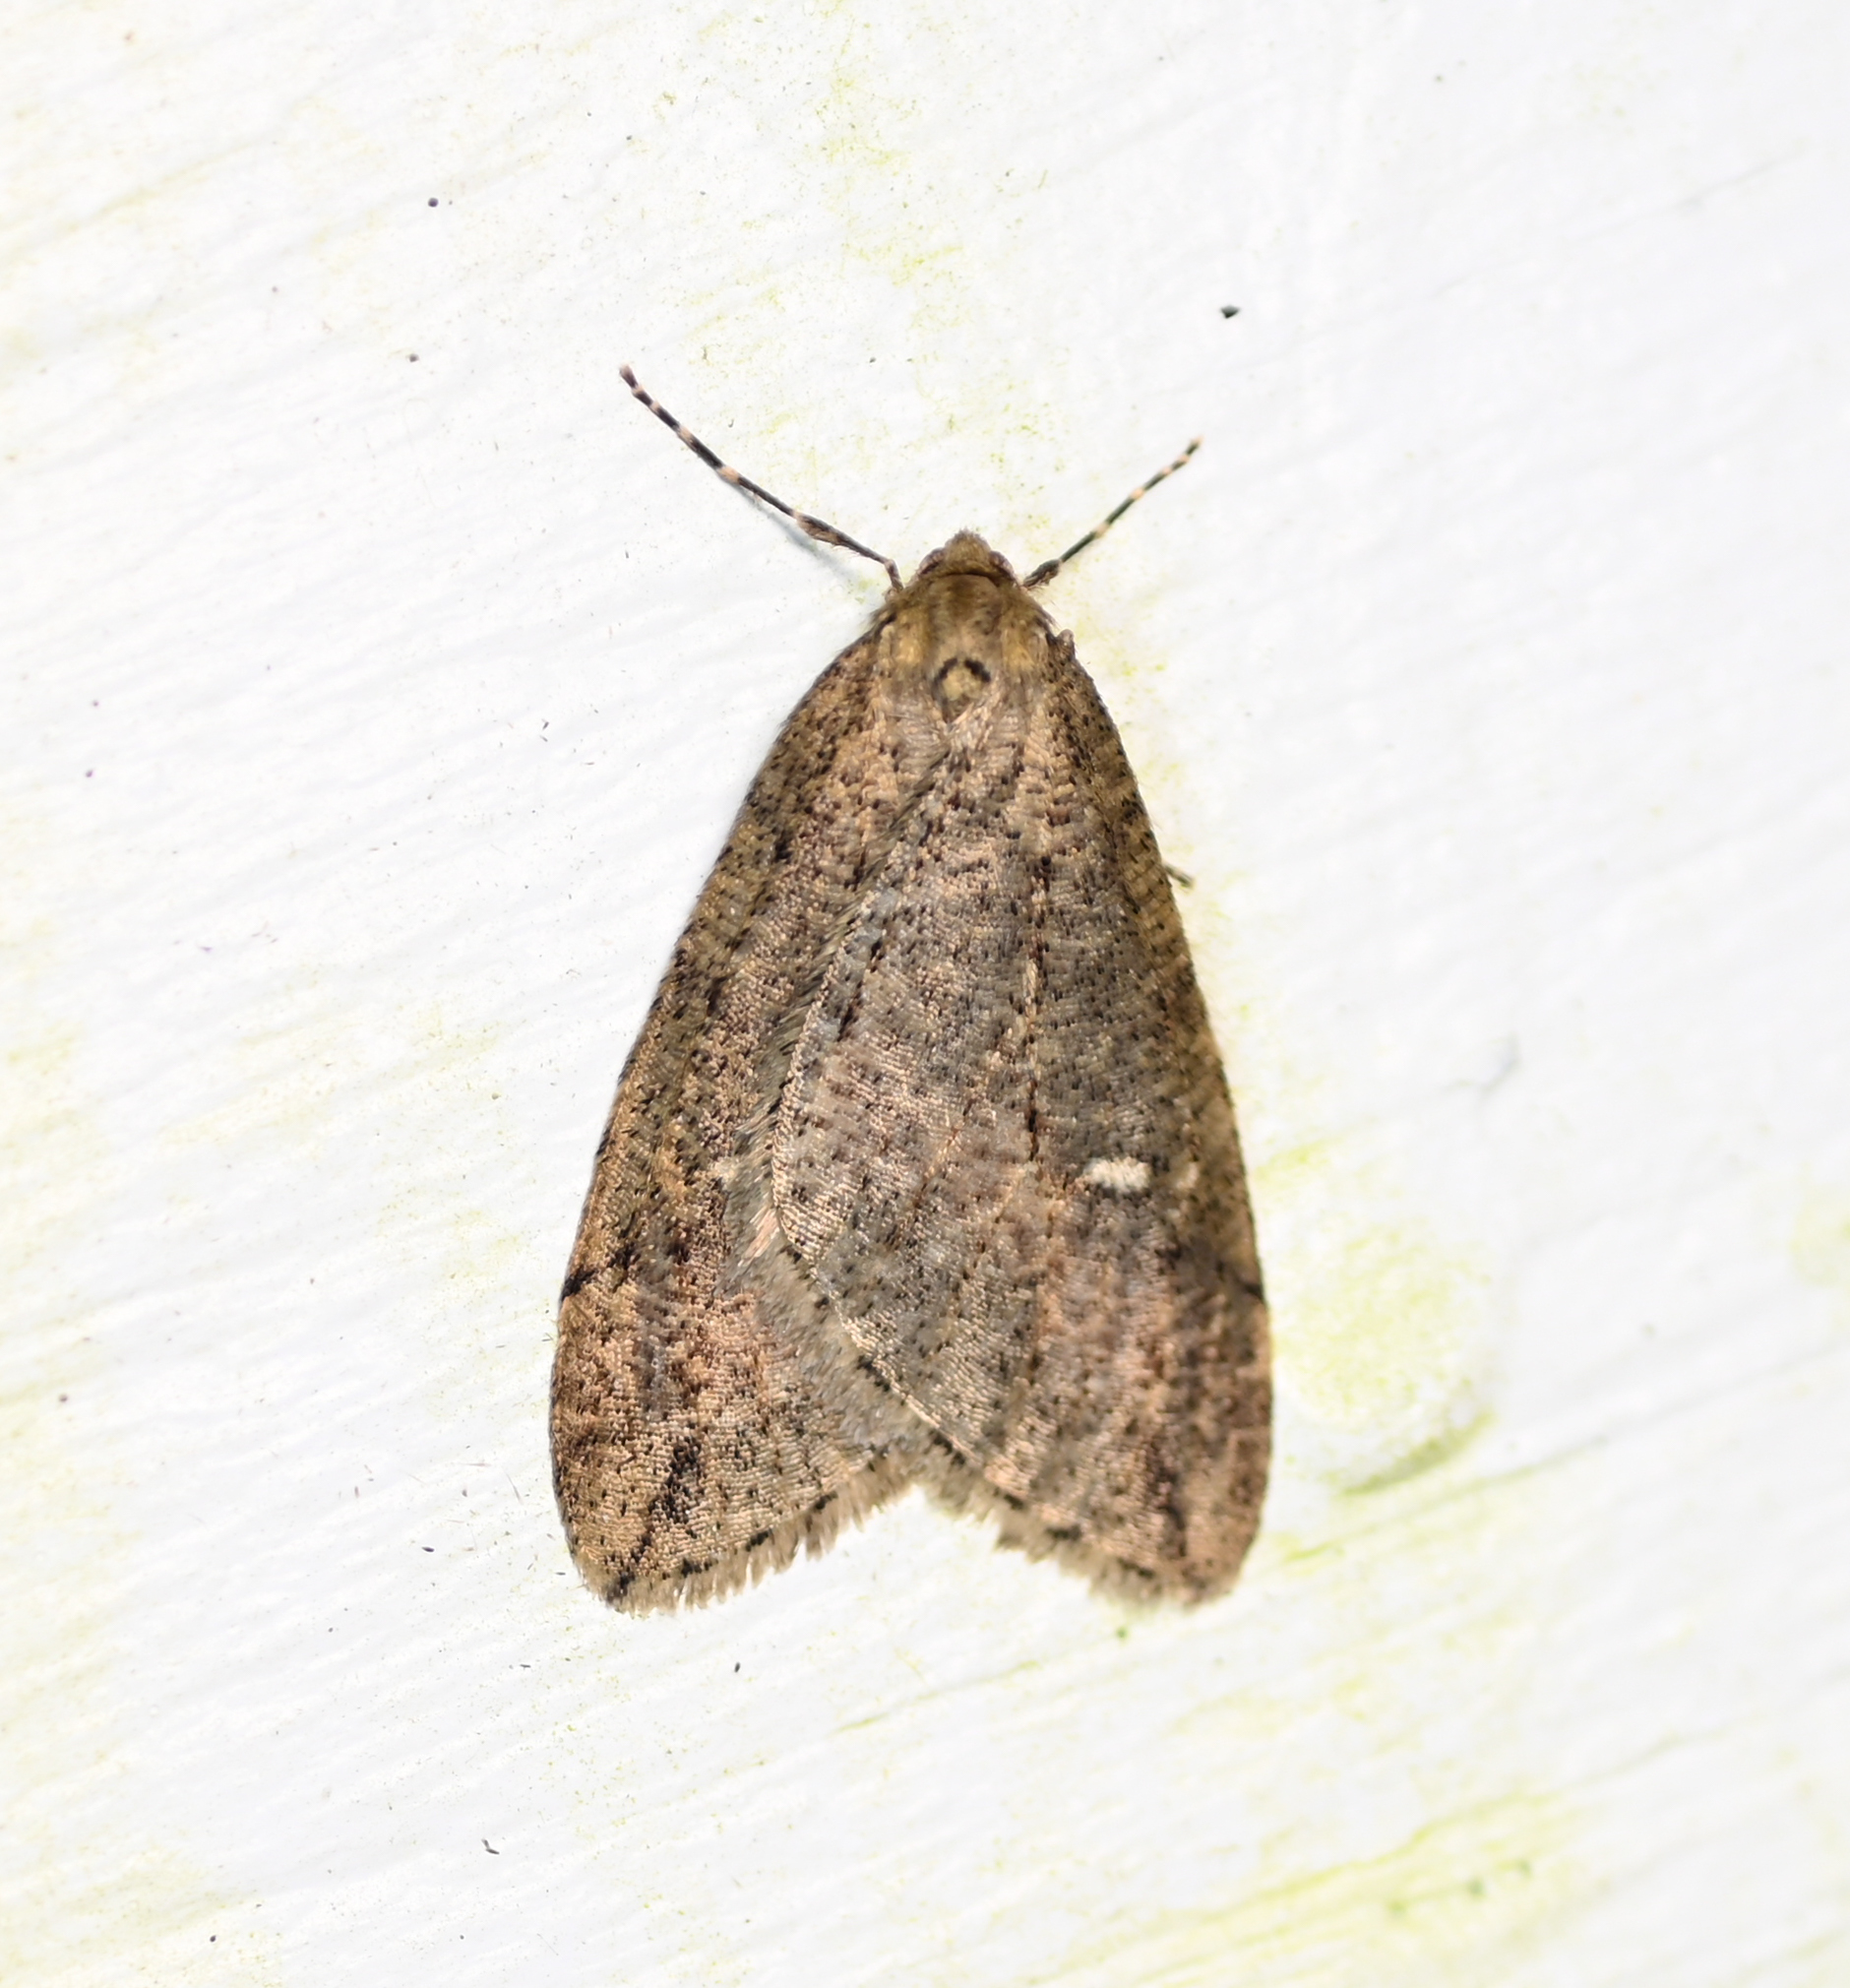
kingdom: Animalia
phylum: Arthropoda
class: Insecta
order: Lepidoptera
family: Geometridae
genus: Paleacrita
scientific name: Paleacrita merriccata
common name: White-spotted canker worm
